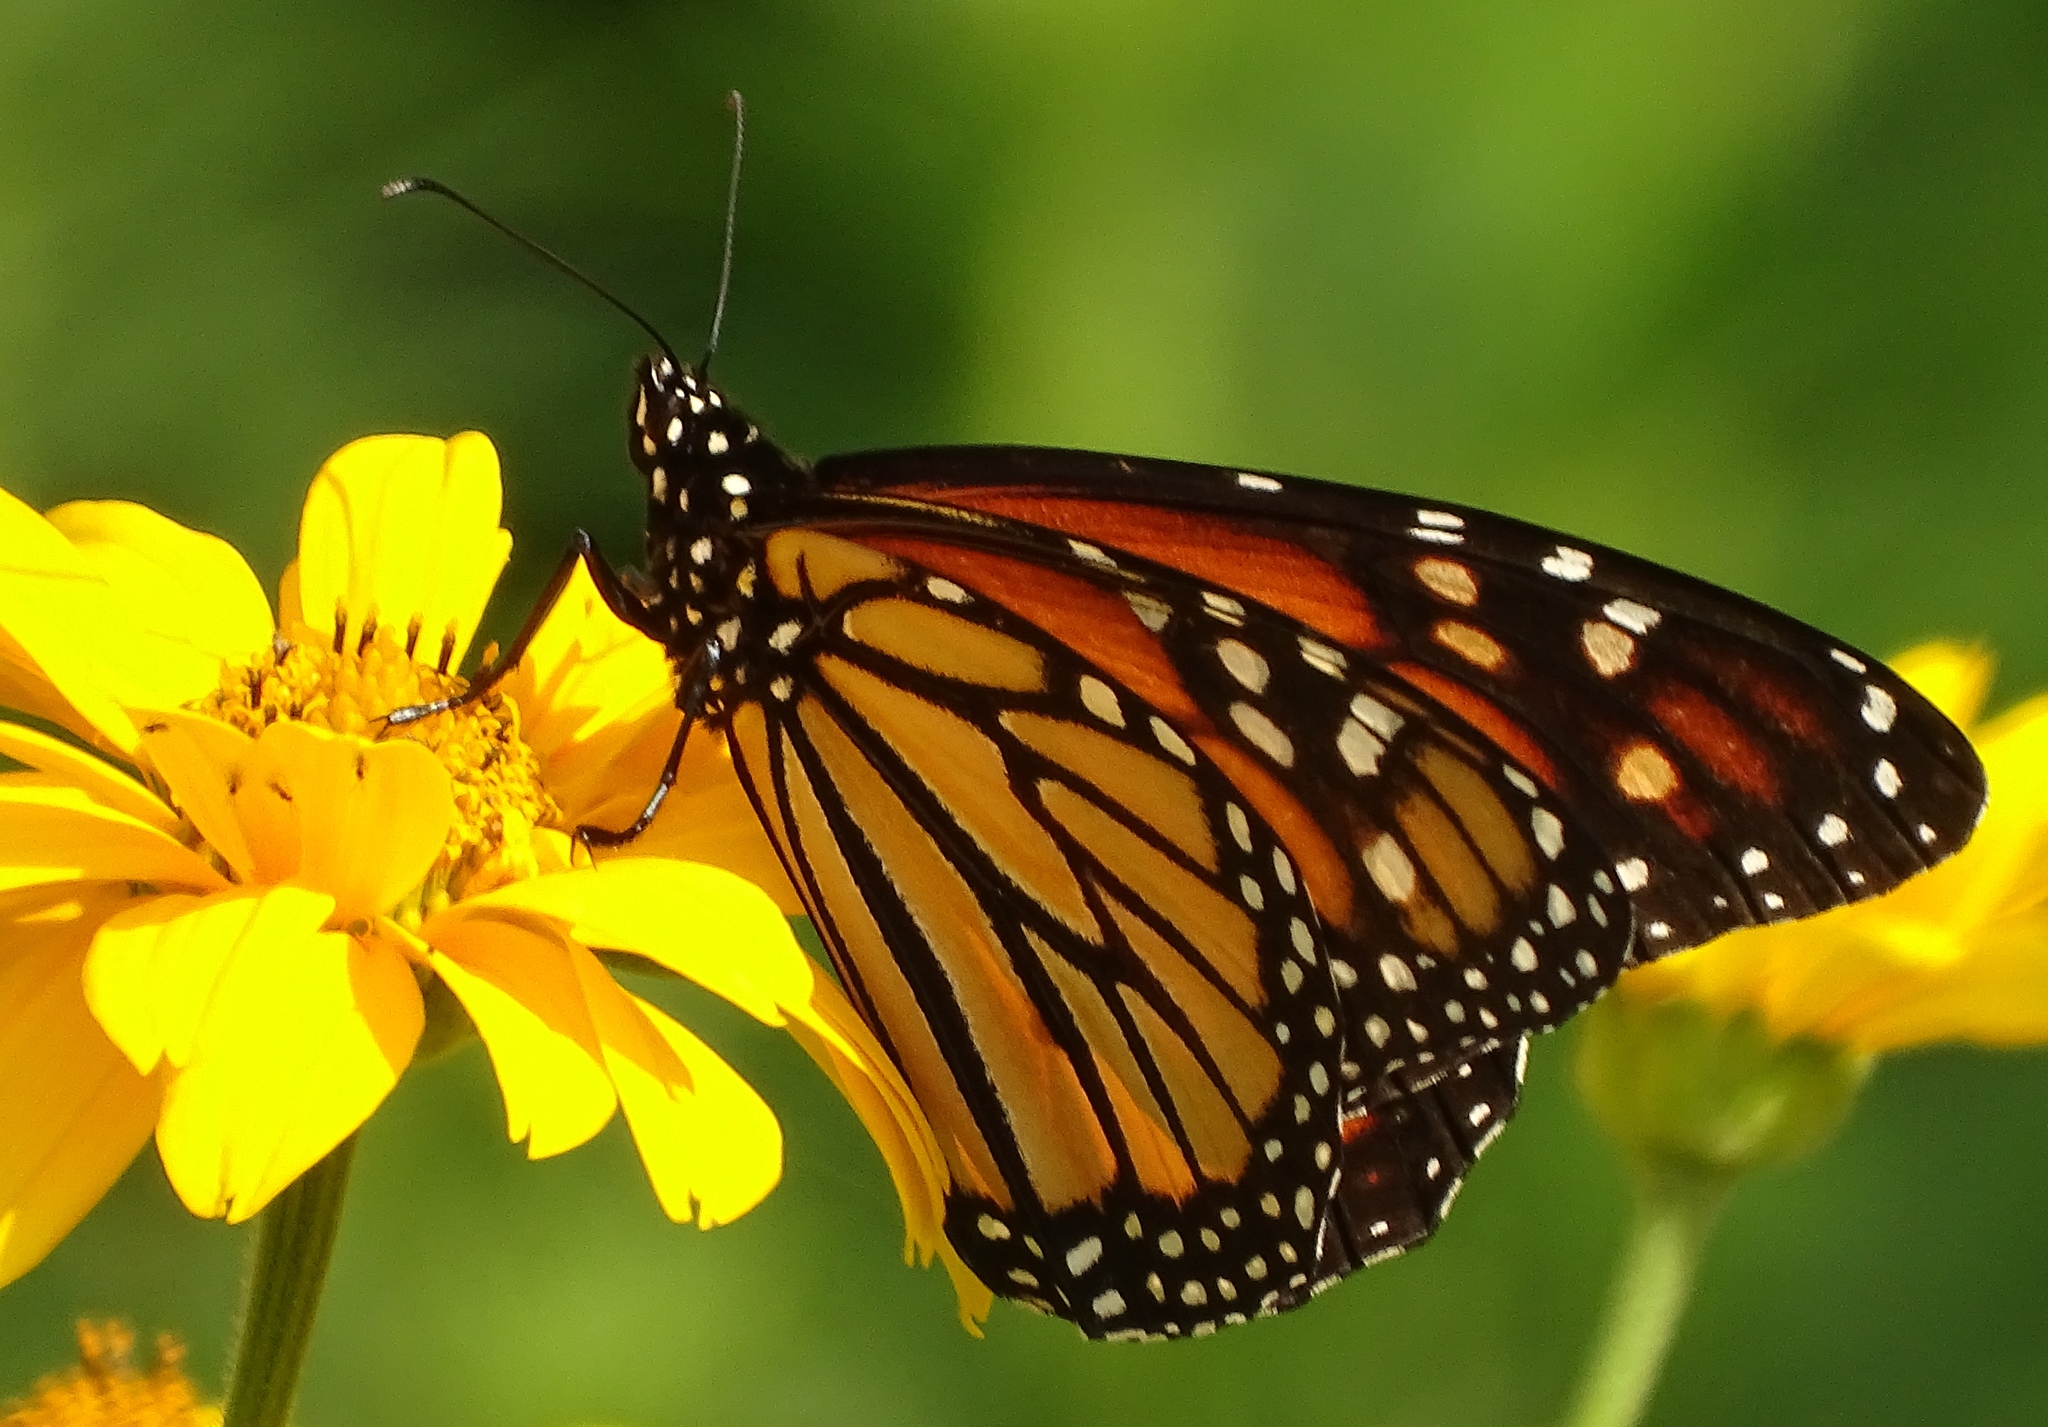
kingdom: Animalia
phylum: Arthropoda
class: Insecta
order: Lepidoptera
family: Nymphalidae
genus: Danaus
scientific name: Danaus plexippus
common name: Monarch
